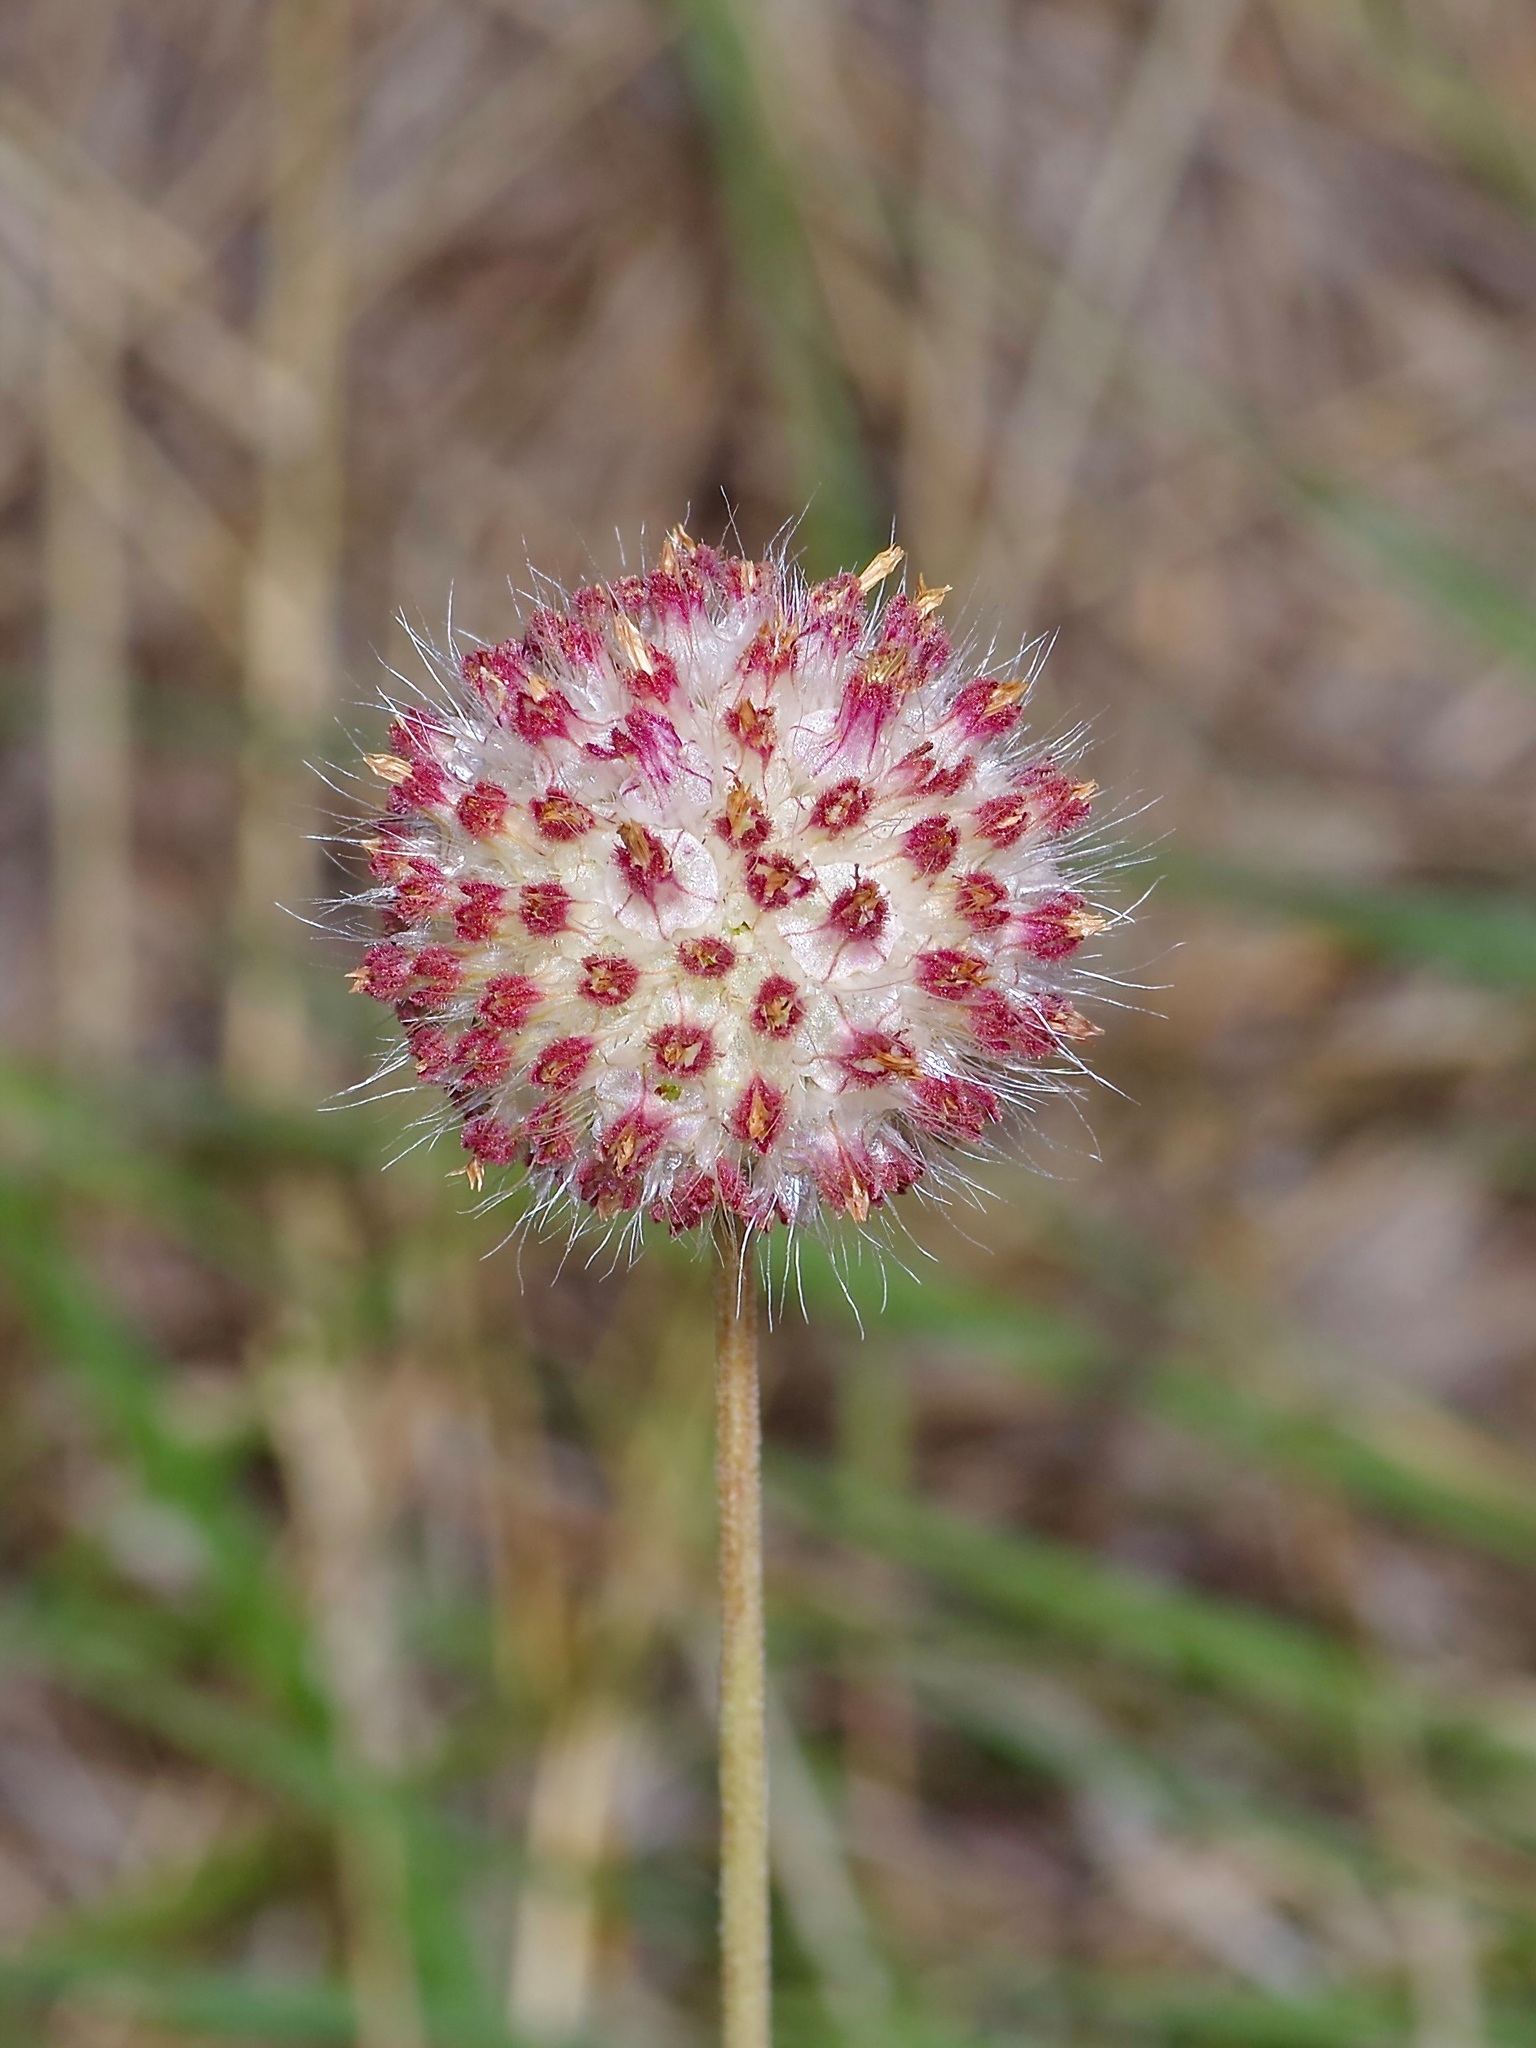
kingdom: Plantae
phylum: Tracheophyta
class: Magnoliopsida
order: Asterales
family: Asteraceae
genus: Gaillardia
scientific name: Gaillardia suavis
